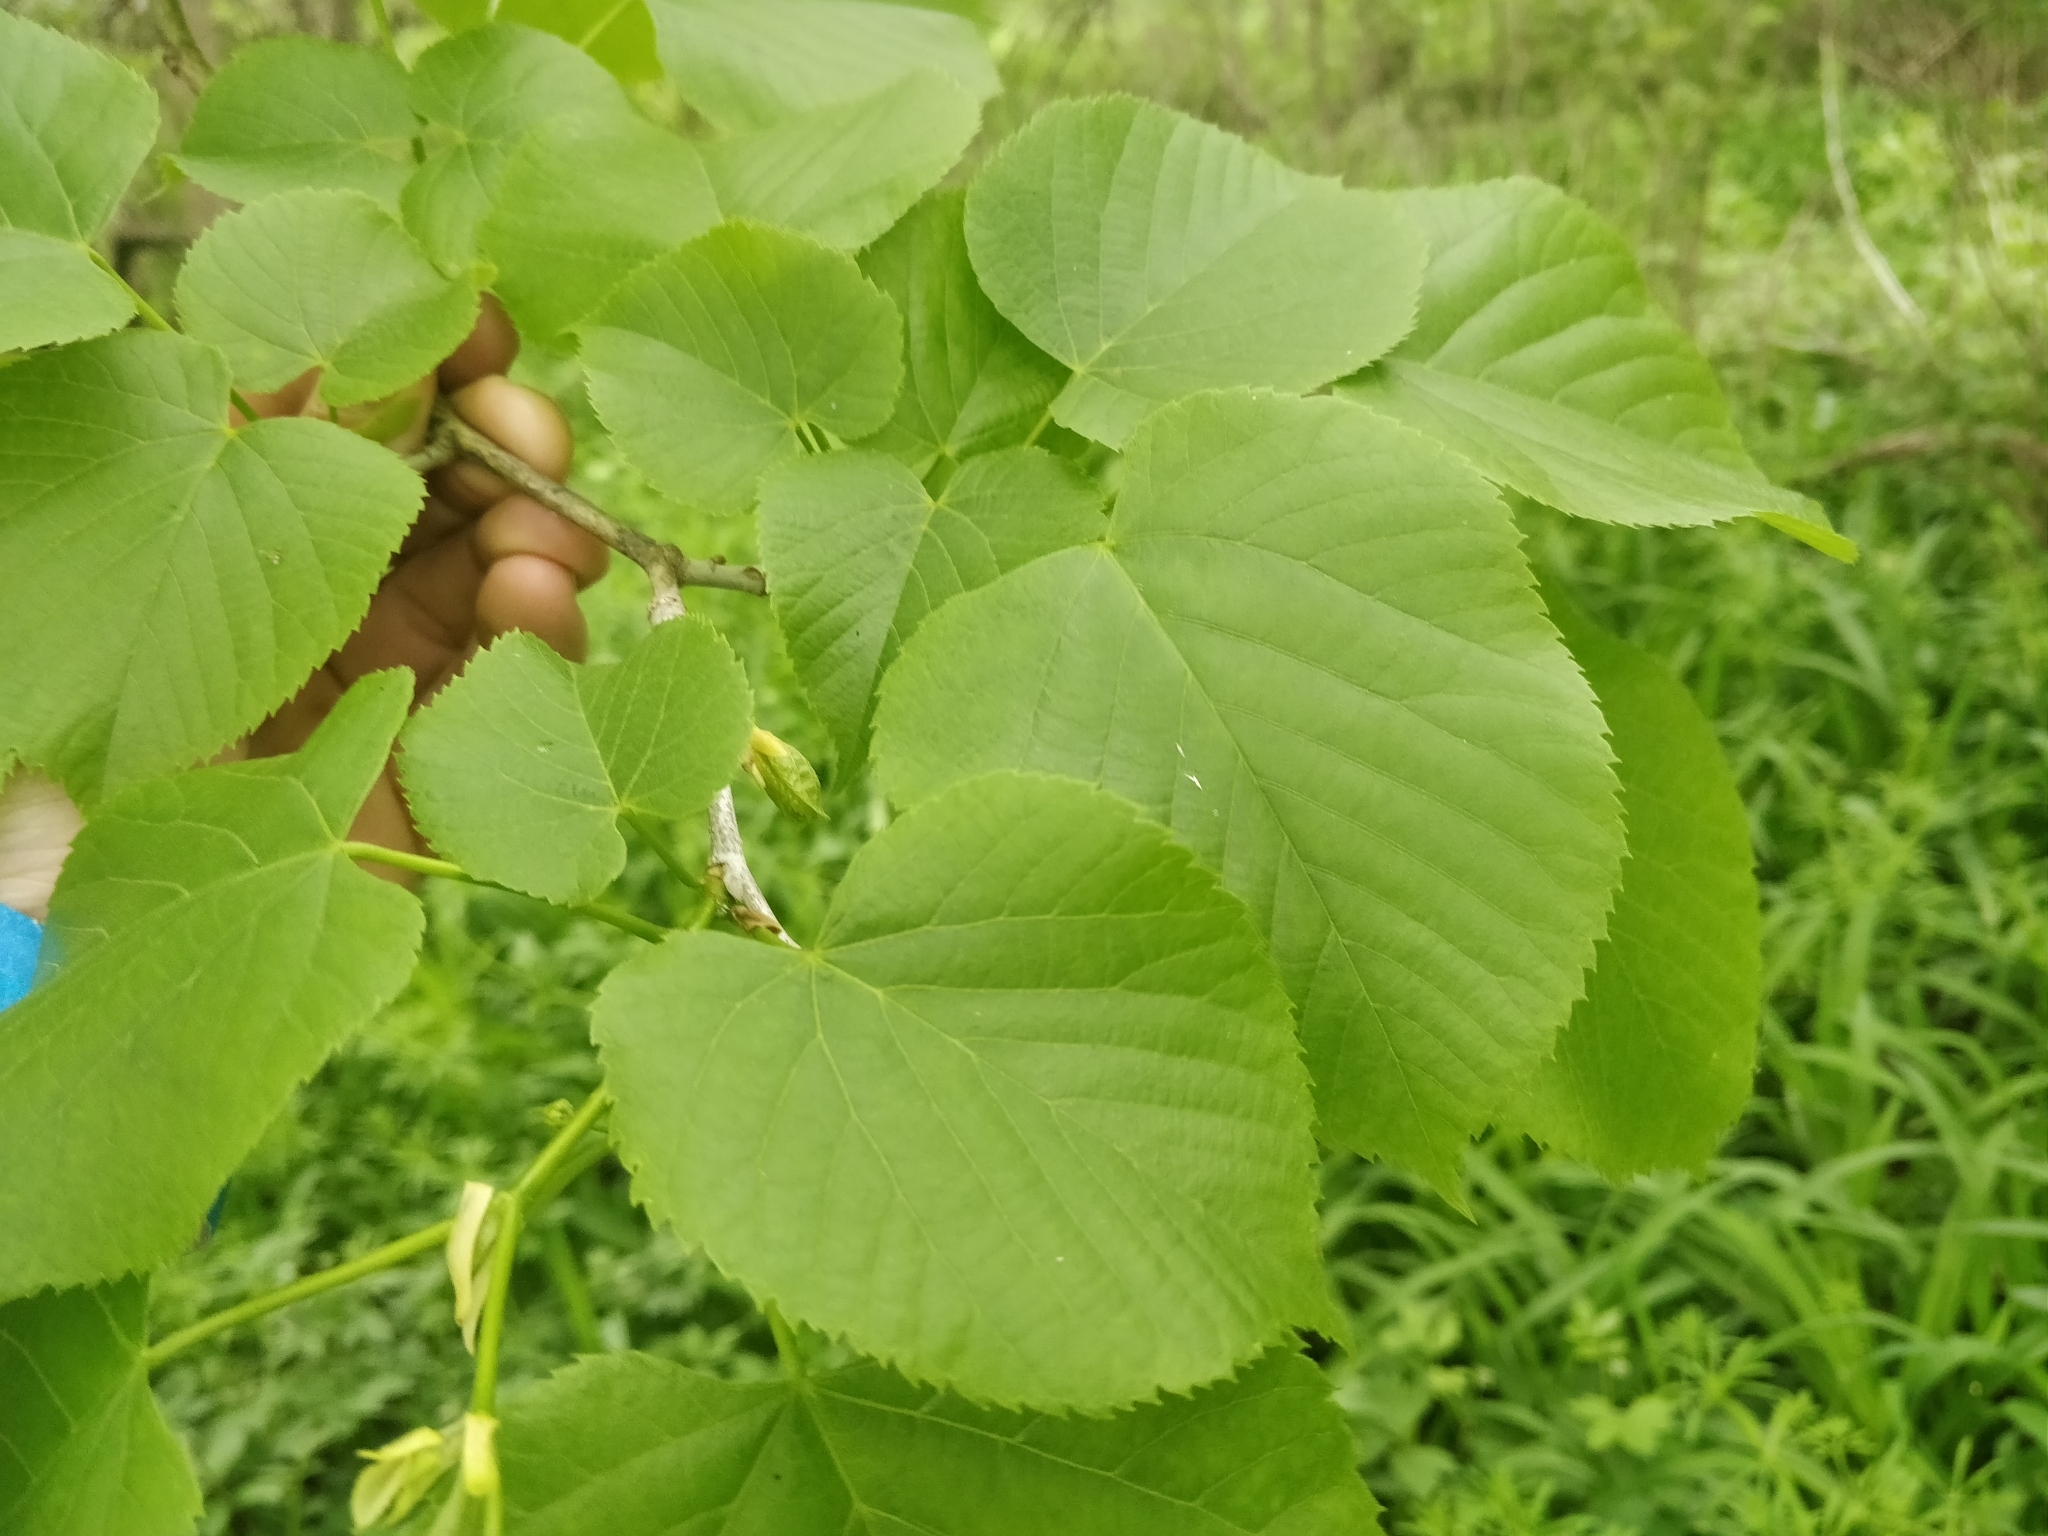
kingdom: Plantae
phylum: Tracheophyta
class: Magnoliopsida
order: Malvales
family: Malvaceae
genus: Tilia
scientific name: Tilia americana
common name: Basswood
